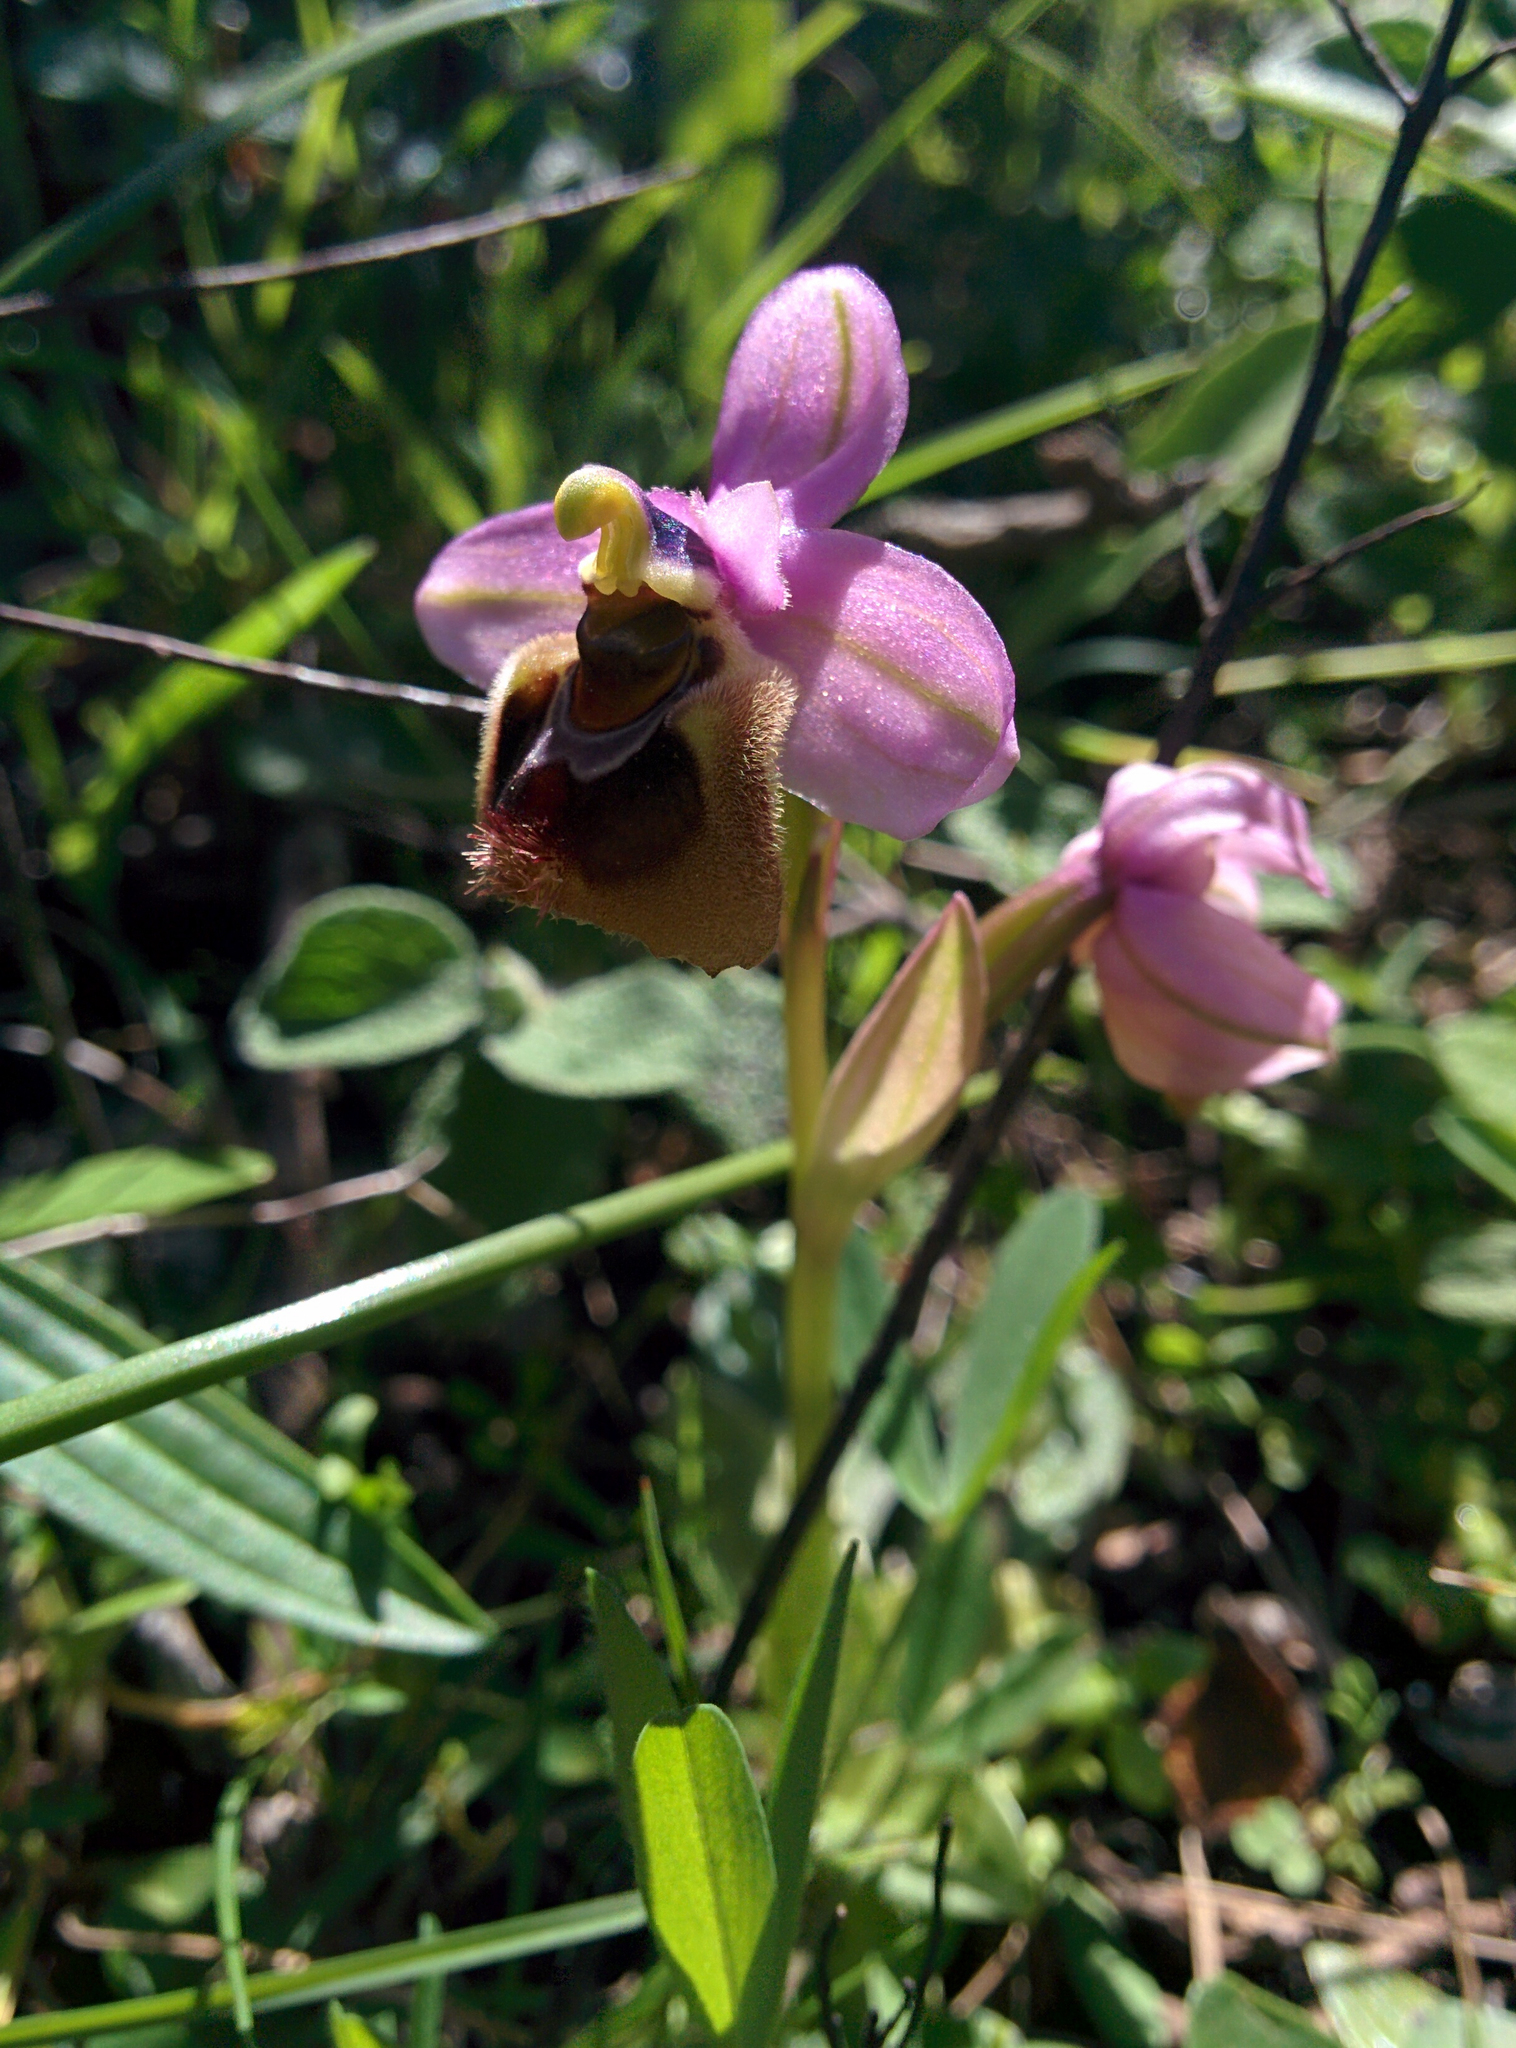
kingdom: Plantae
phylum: Tracheophyta
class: Liliopsida
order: Asparagales
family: Orchidaceae
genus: Ophrys
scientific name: Ophrys tenthredinifera
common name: Sawfly orchid
